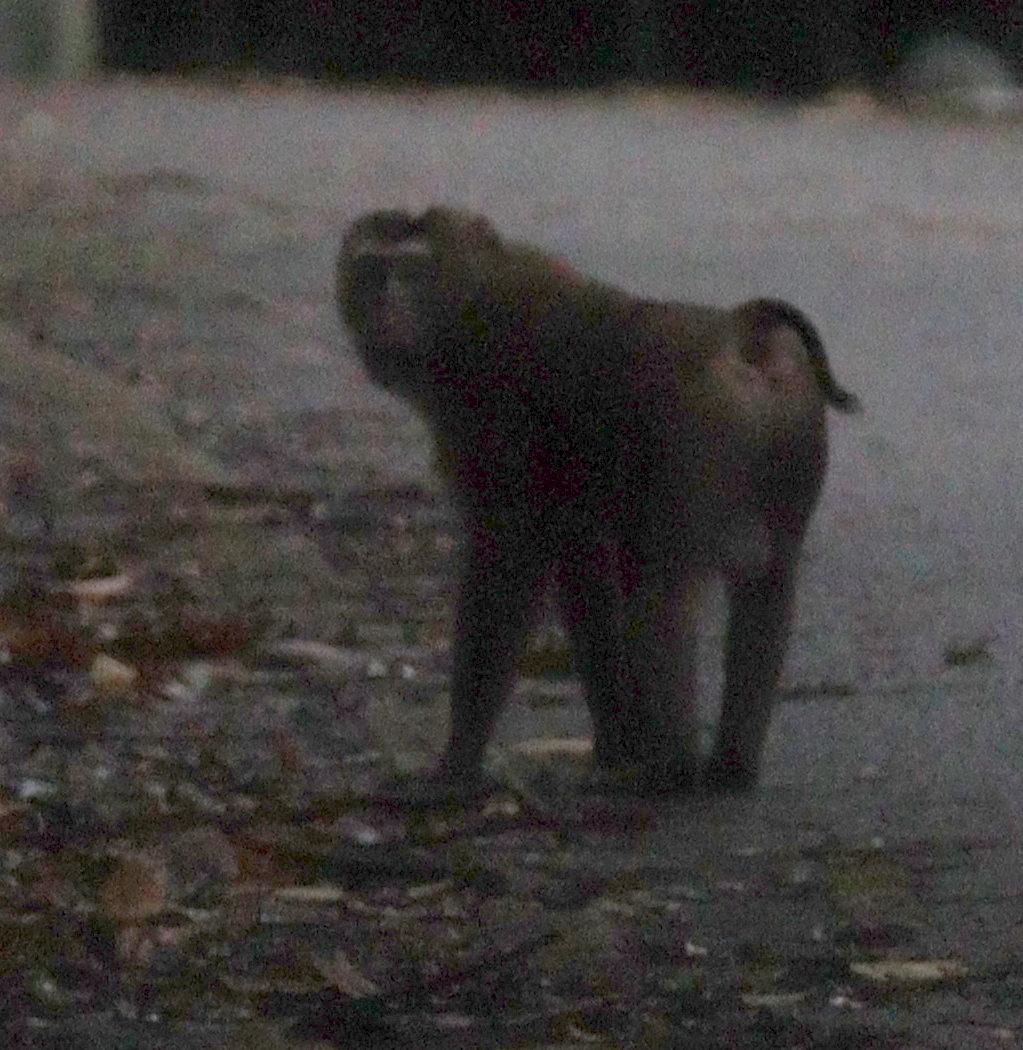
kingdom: Animalia
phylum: Chordata
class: Mammalia
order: Primates
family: Cercopithecidae
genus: Macaca
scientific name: Macaca leonina
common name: Northern pig-tailed macaque
